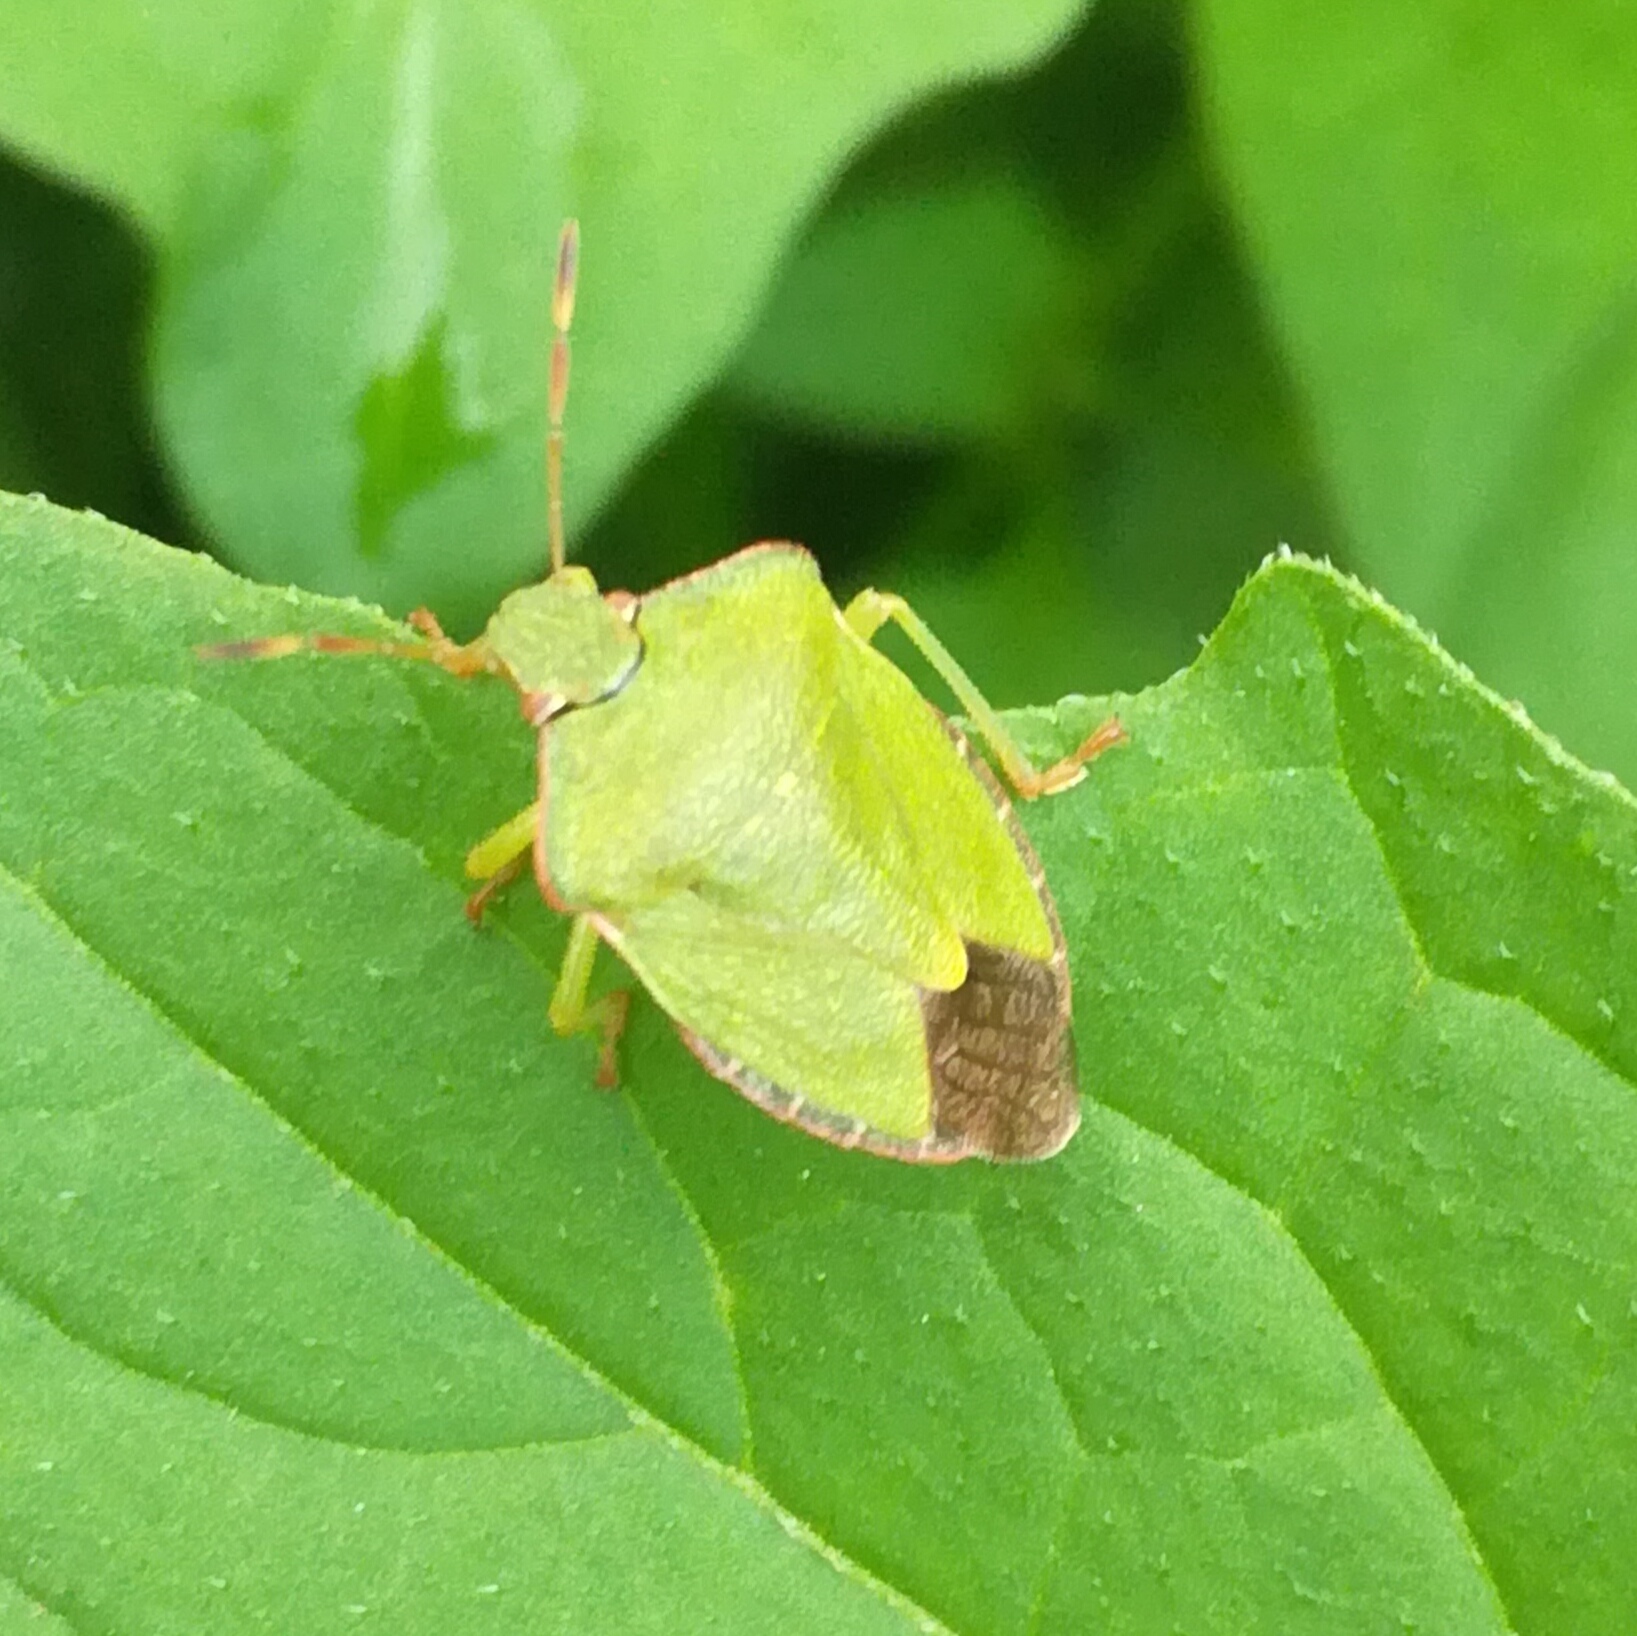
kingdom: Animalia
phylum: Arthropoda
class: Insecta
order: Hemiptera
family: Pentatomidae
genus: Palomena
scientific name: Palomena prasina
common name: Green shieldbug
